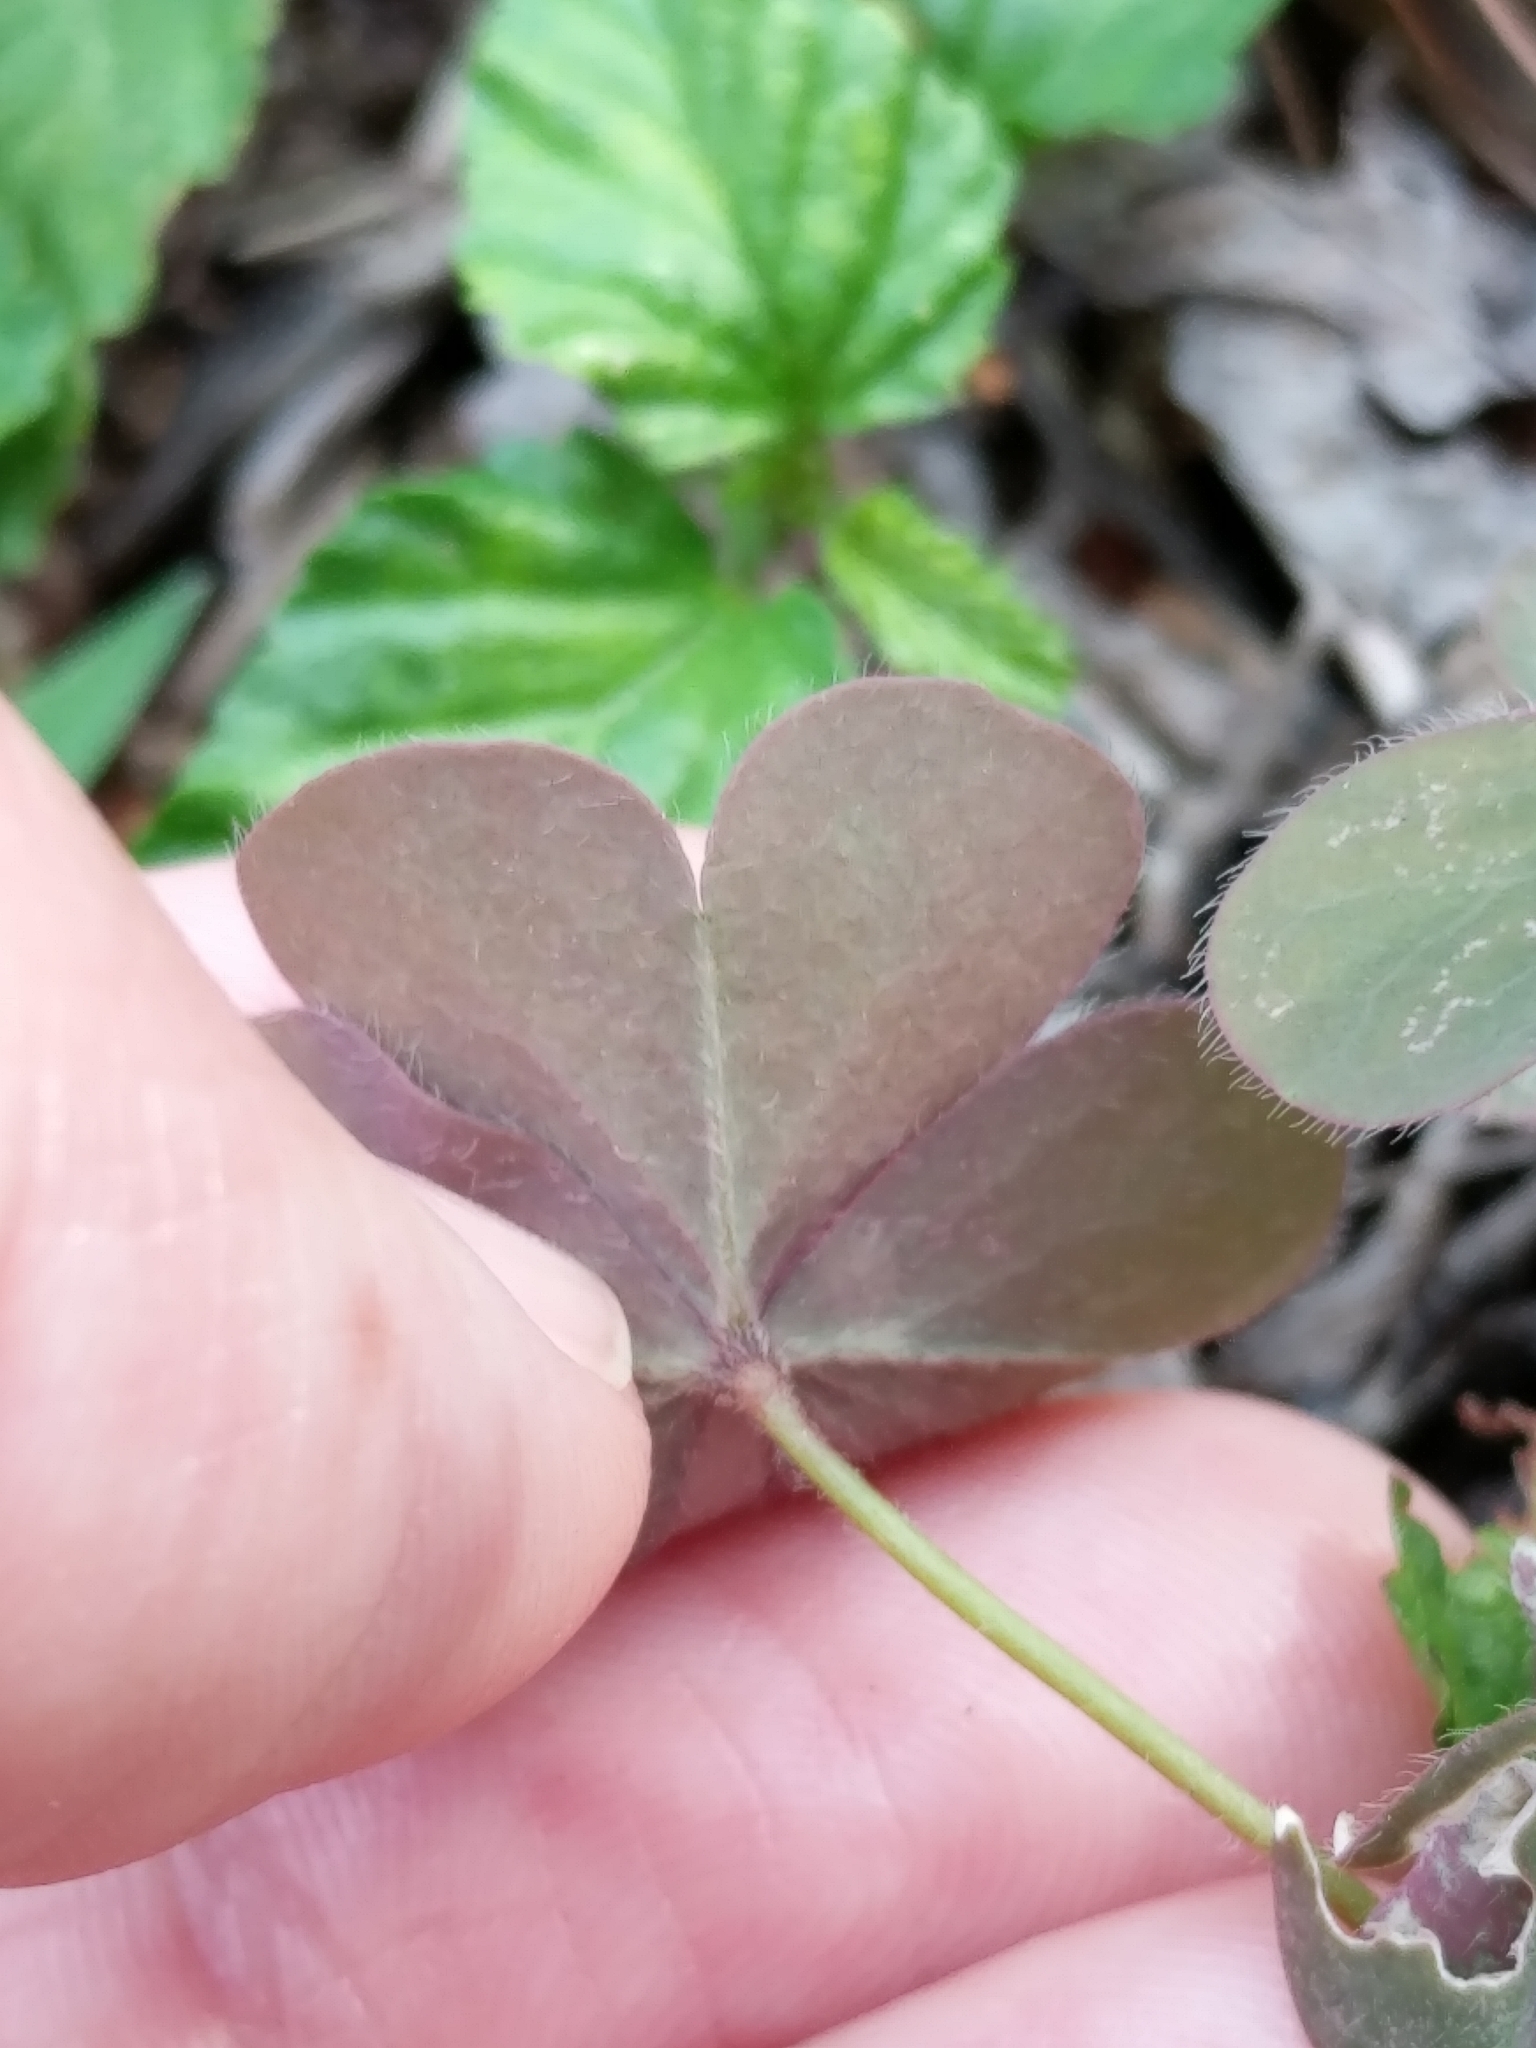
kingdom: Plantae
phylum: Tracheophyta
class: Magnoliopsida
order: Oxalidales
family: Oxalidaceae
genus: Oxalis
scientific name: Oxalis corniculata
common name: Procumbent yellow-sorrel
